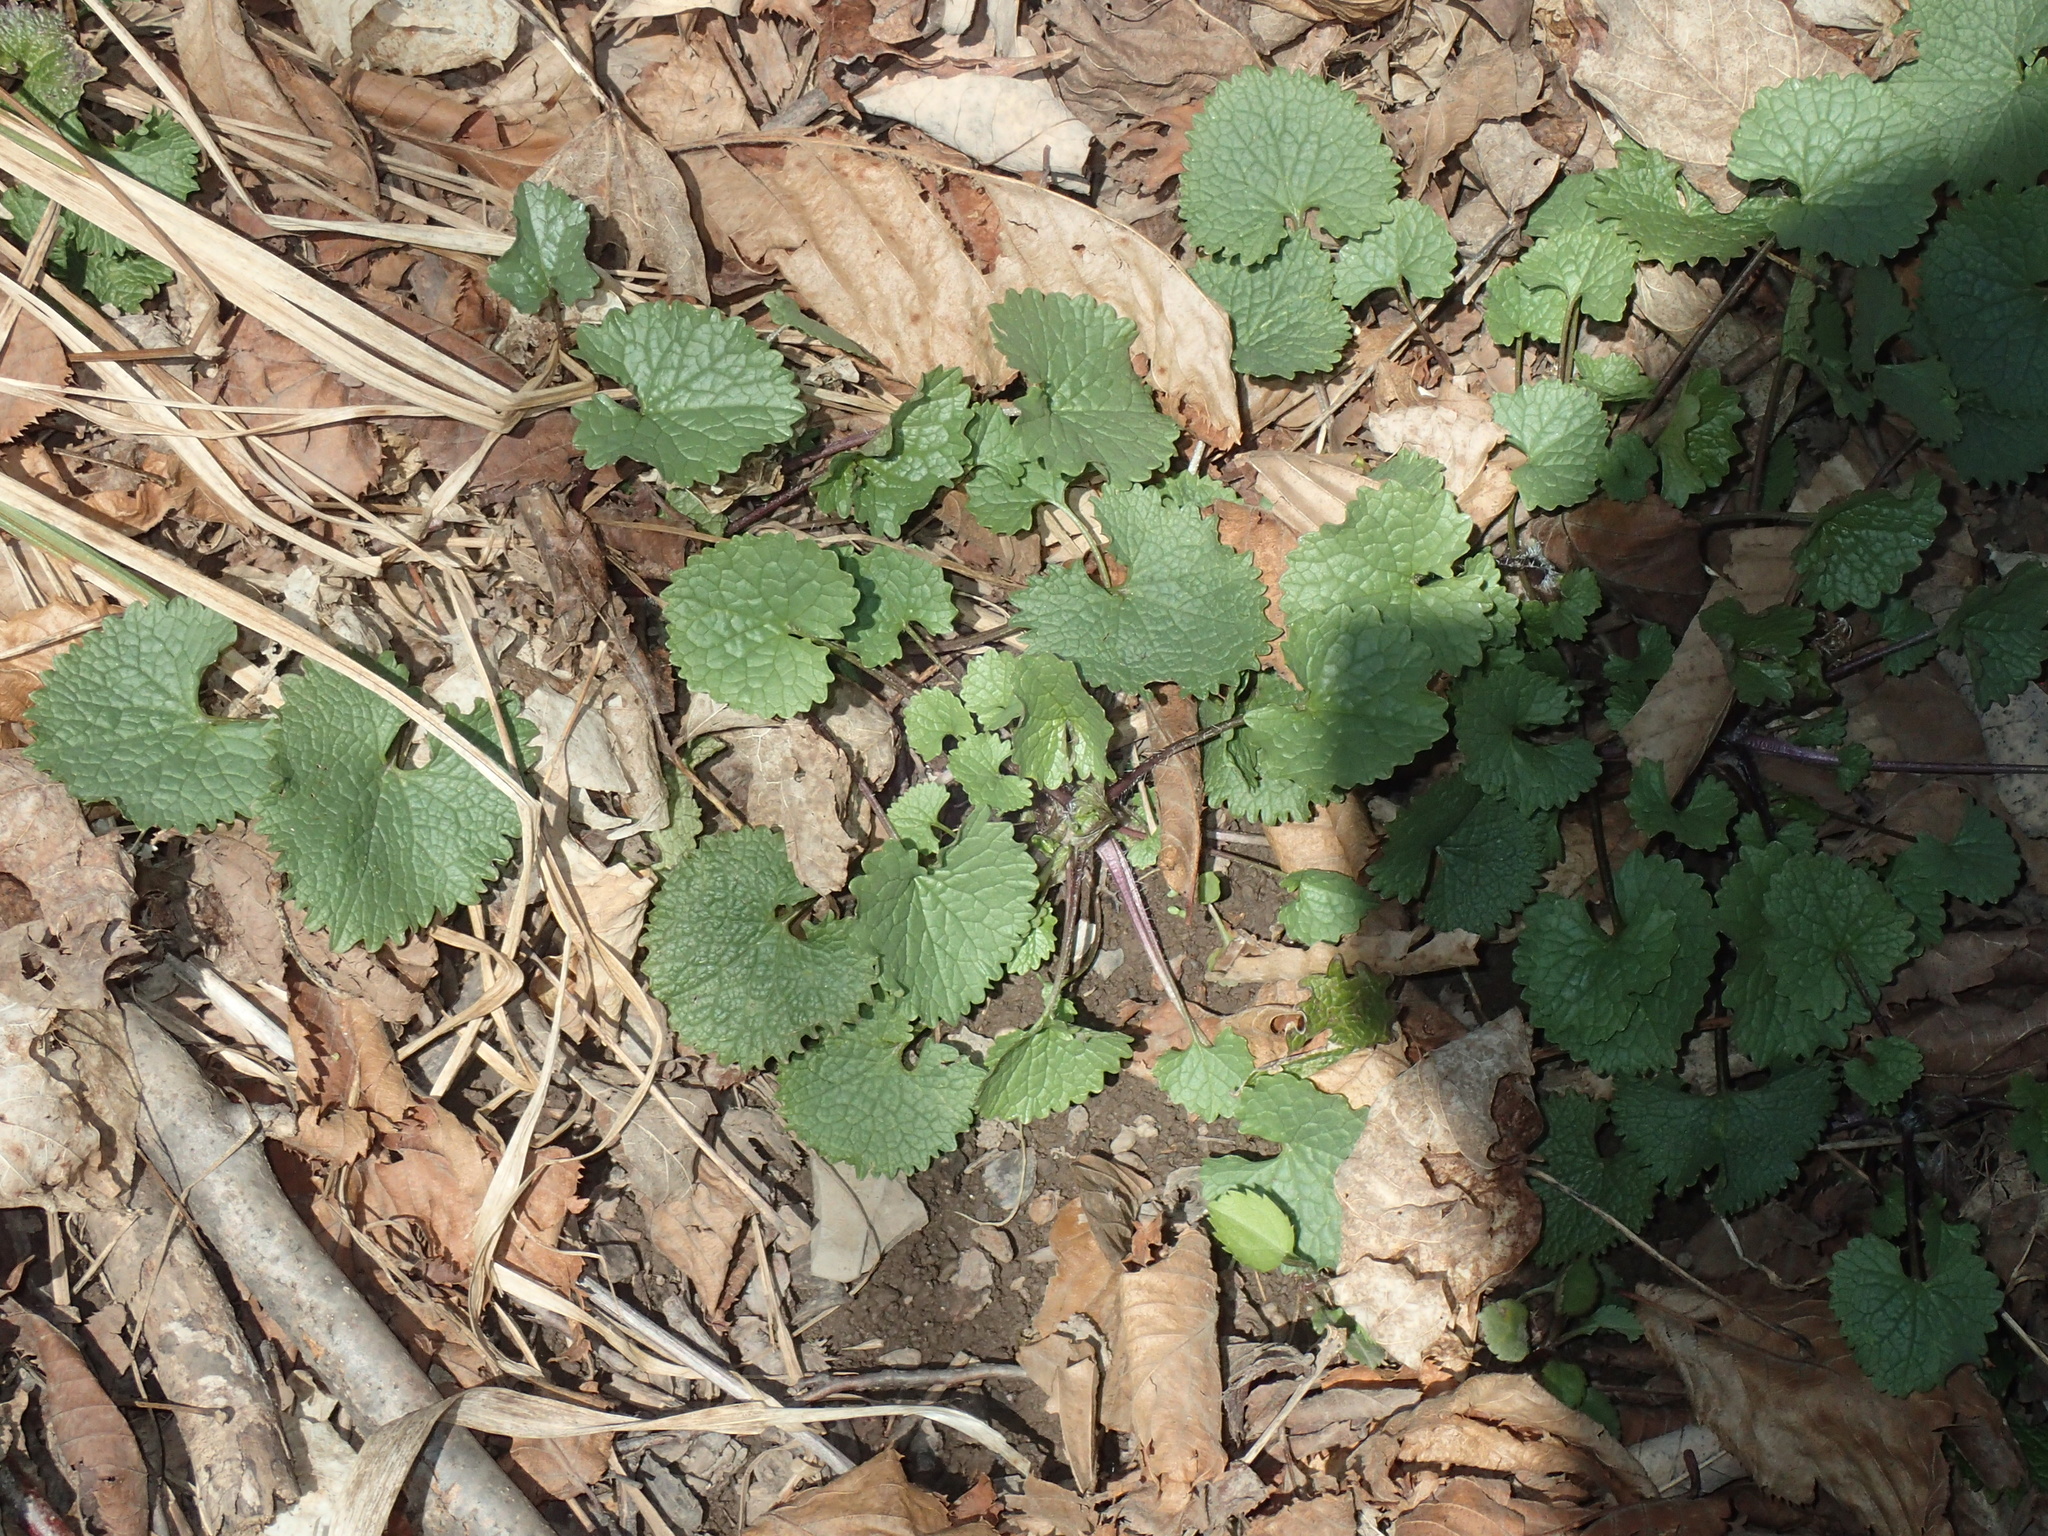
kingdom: Plantae
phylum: Tracheophyta
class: Magnoliopsida
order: Brassicales
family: Brassicaceae
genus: Alliaria
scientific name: Alliaria petiolata
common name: Garlic mustard
